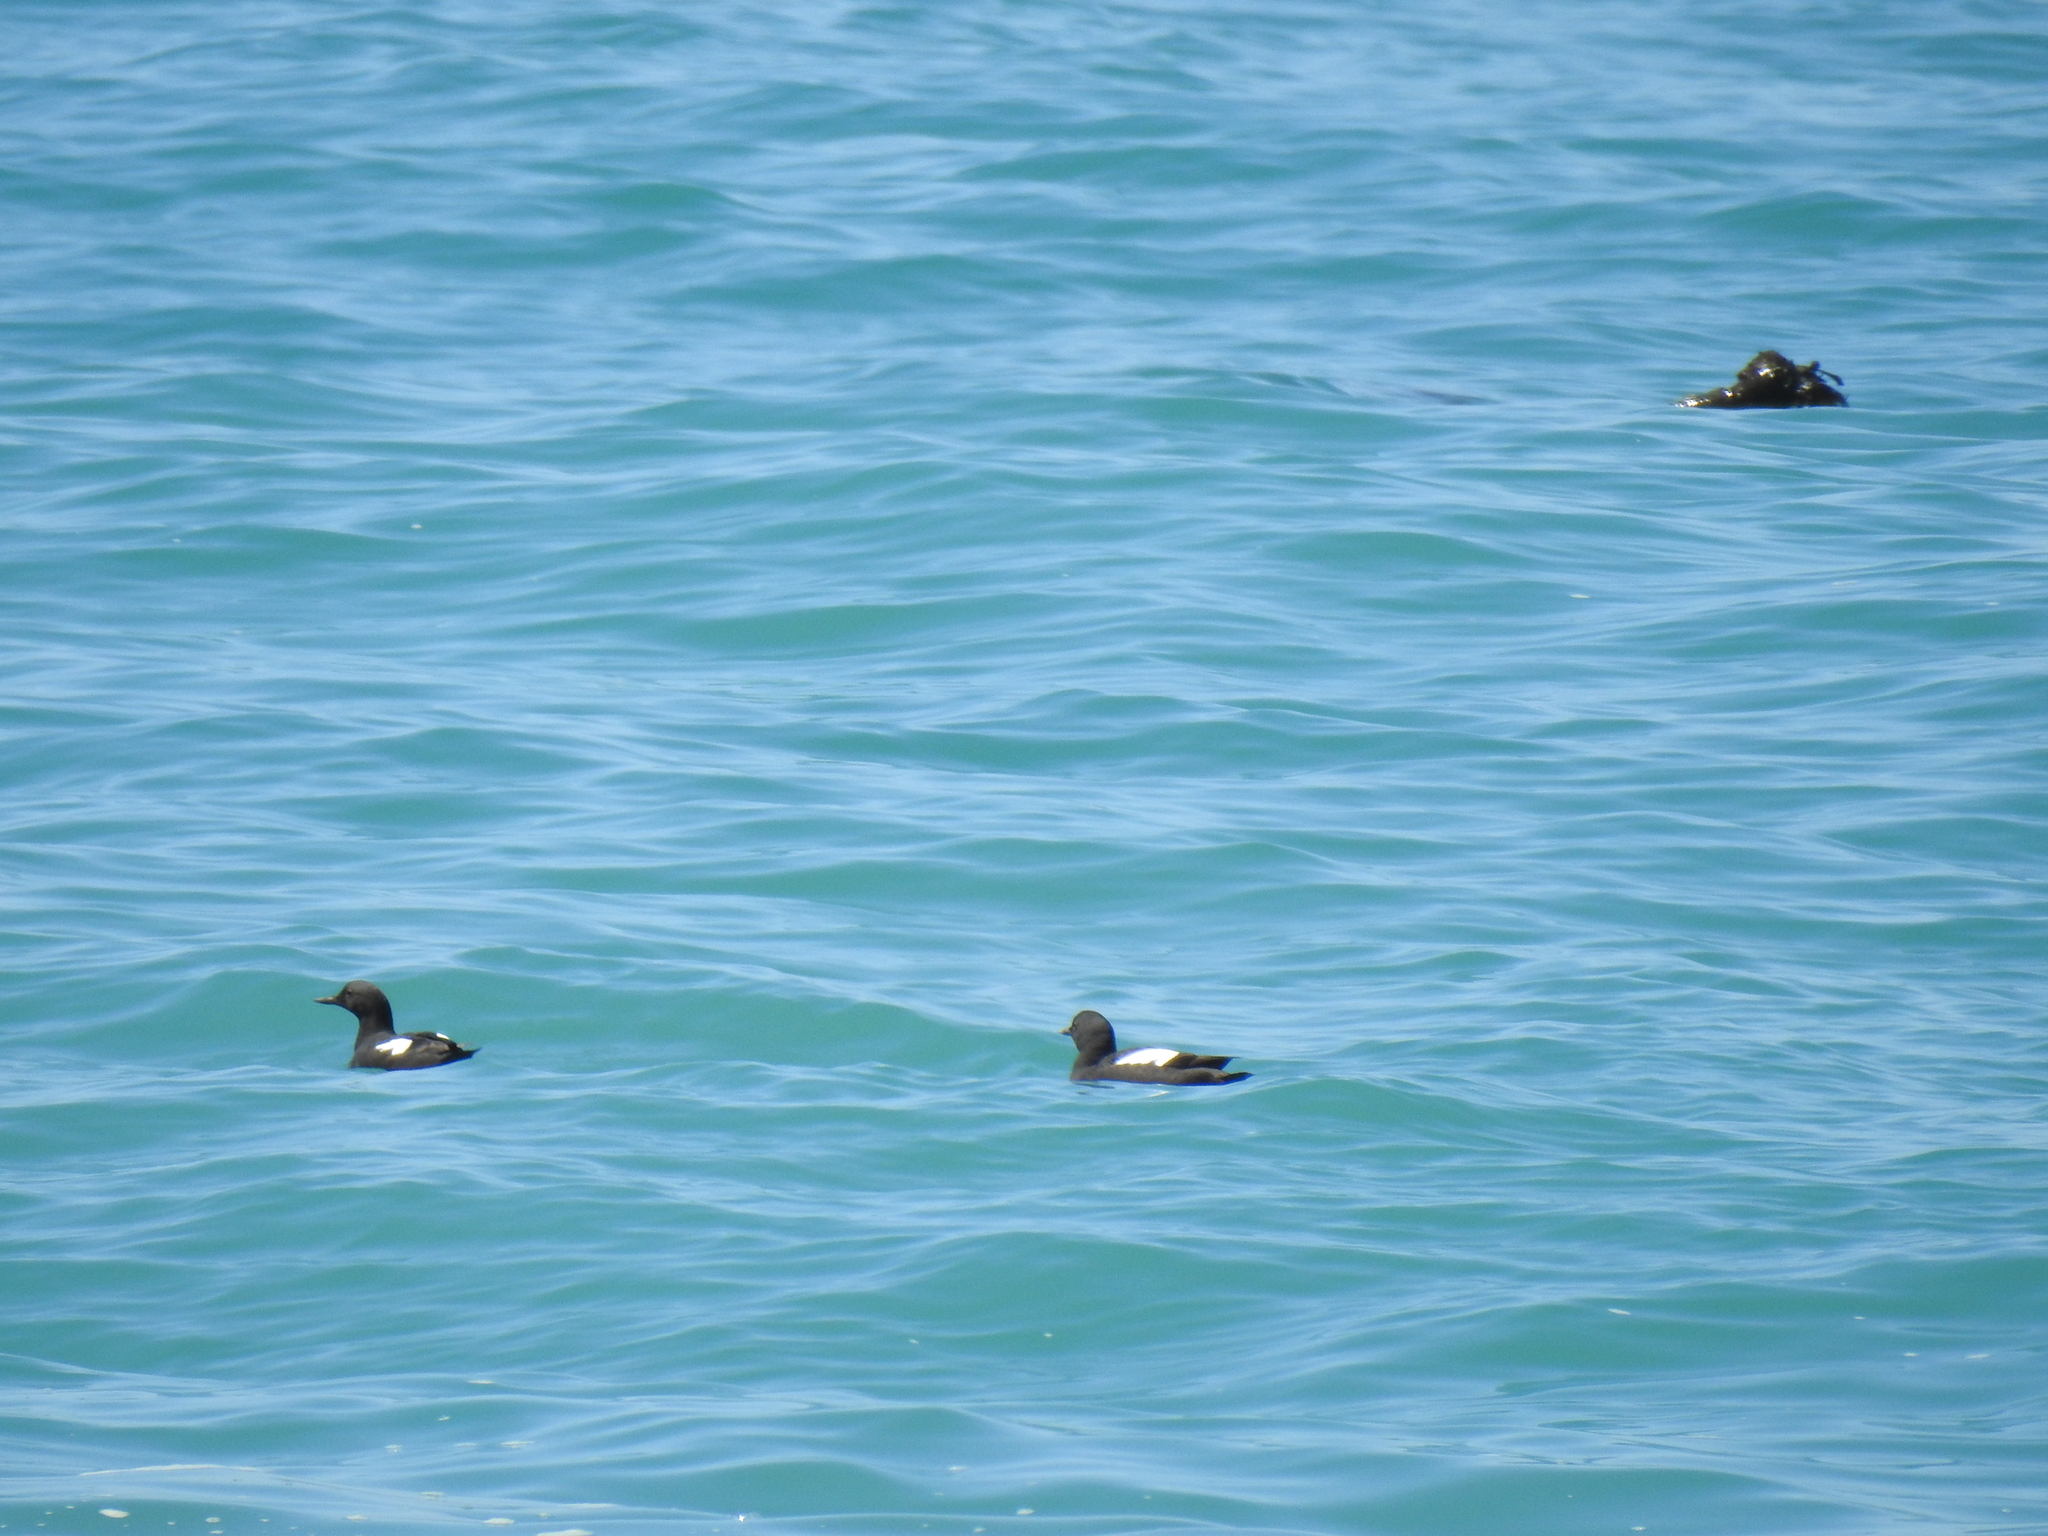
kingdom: Animalia
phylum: Chordata
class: Aves
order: Charadriiformes
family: Alcidae
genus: Cepphus
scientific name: Cepphus columba
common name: Pigeon guillemot
